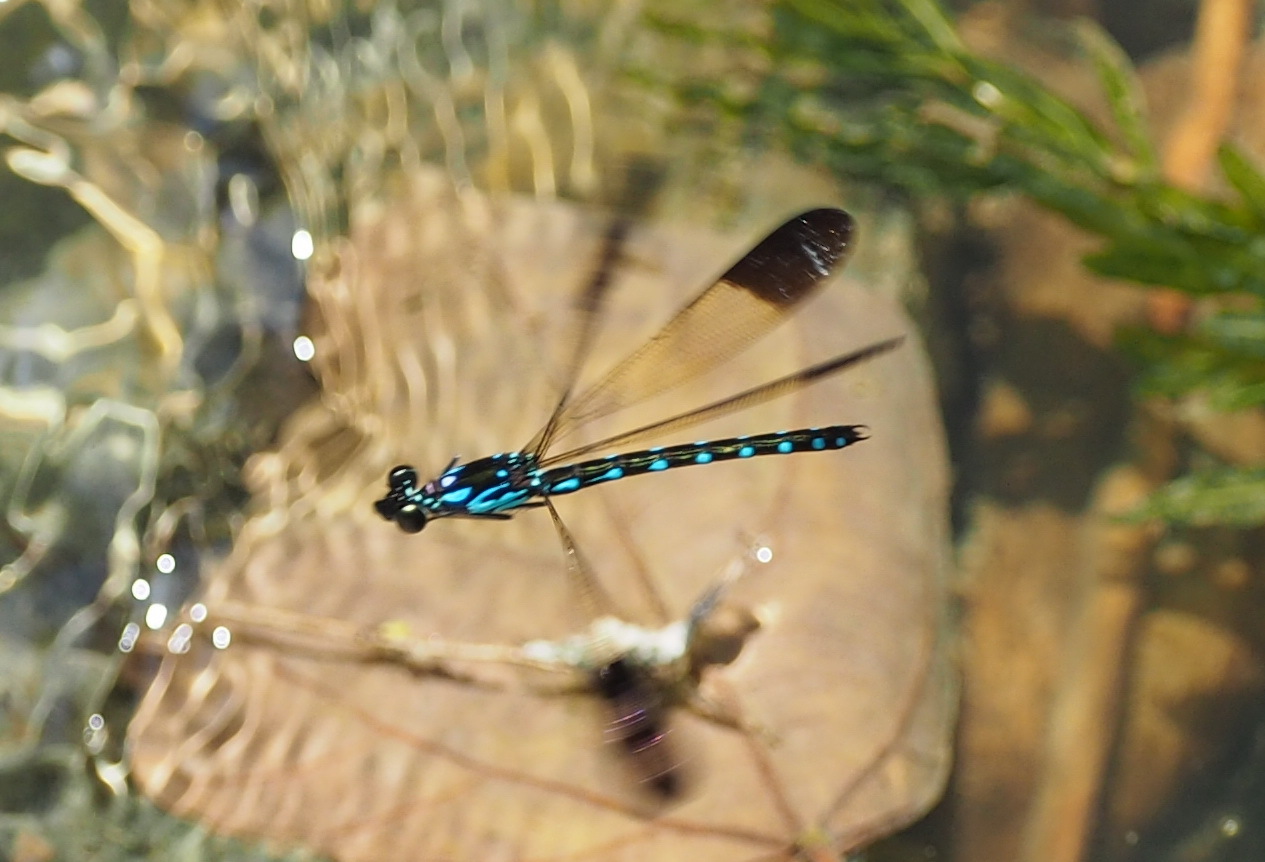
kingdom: Animalia
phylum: Arthropoda
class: Insecta
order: Odonata
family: Chlorocyphidae
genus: Heliocypha
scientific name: Heliocypha perforata
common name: Common blue jewel
